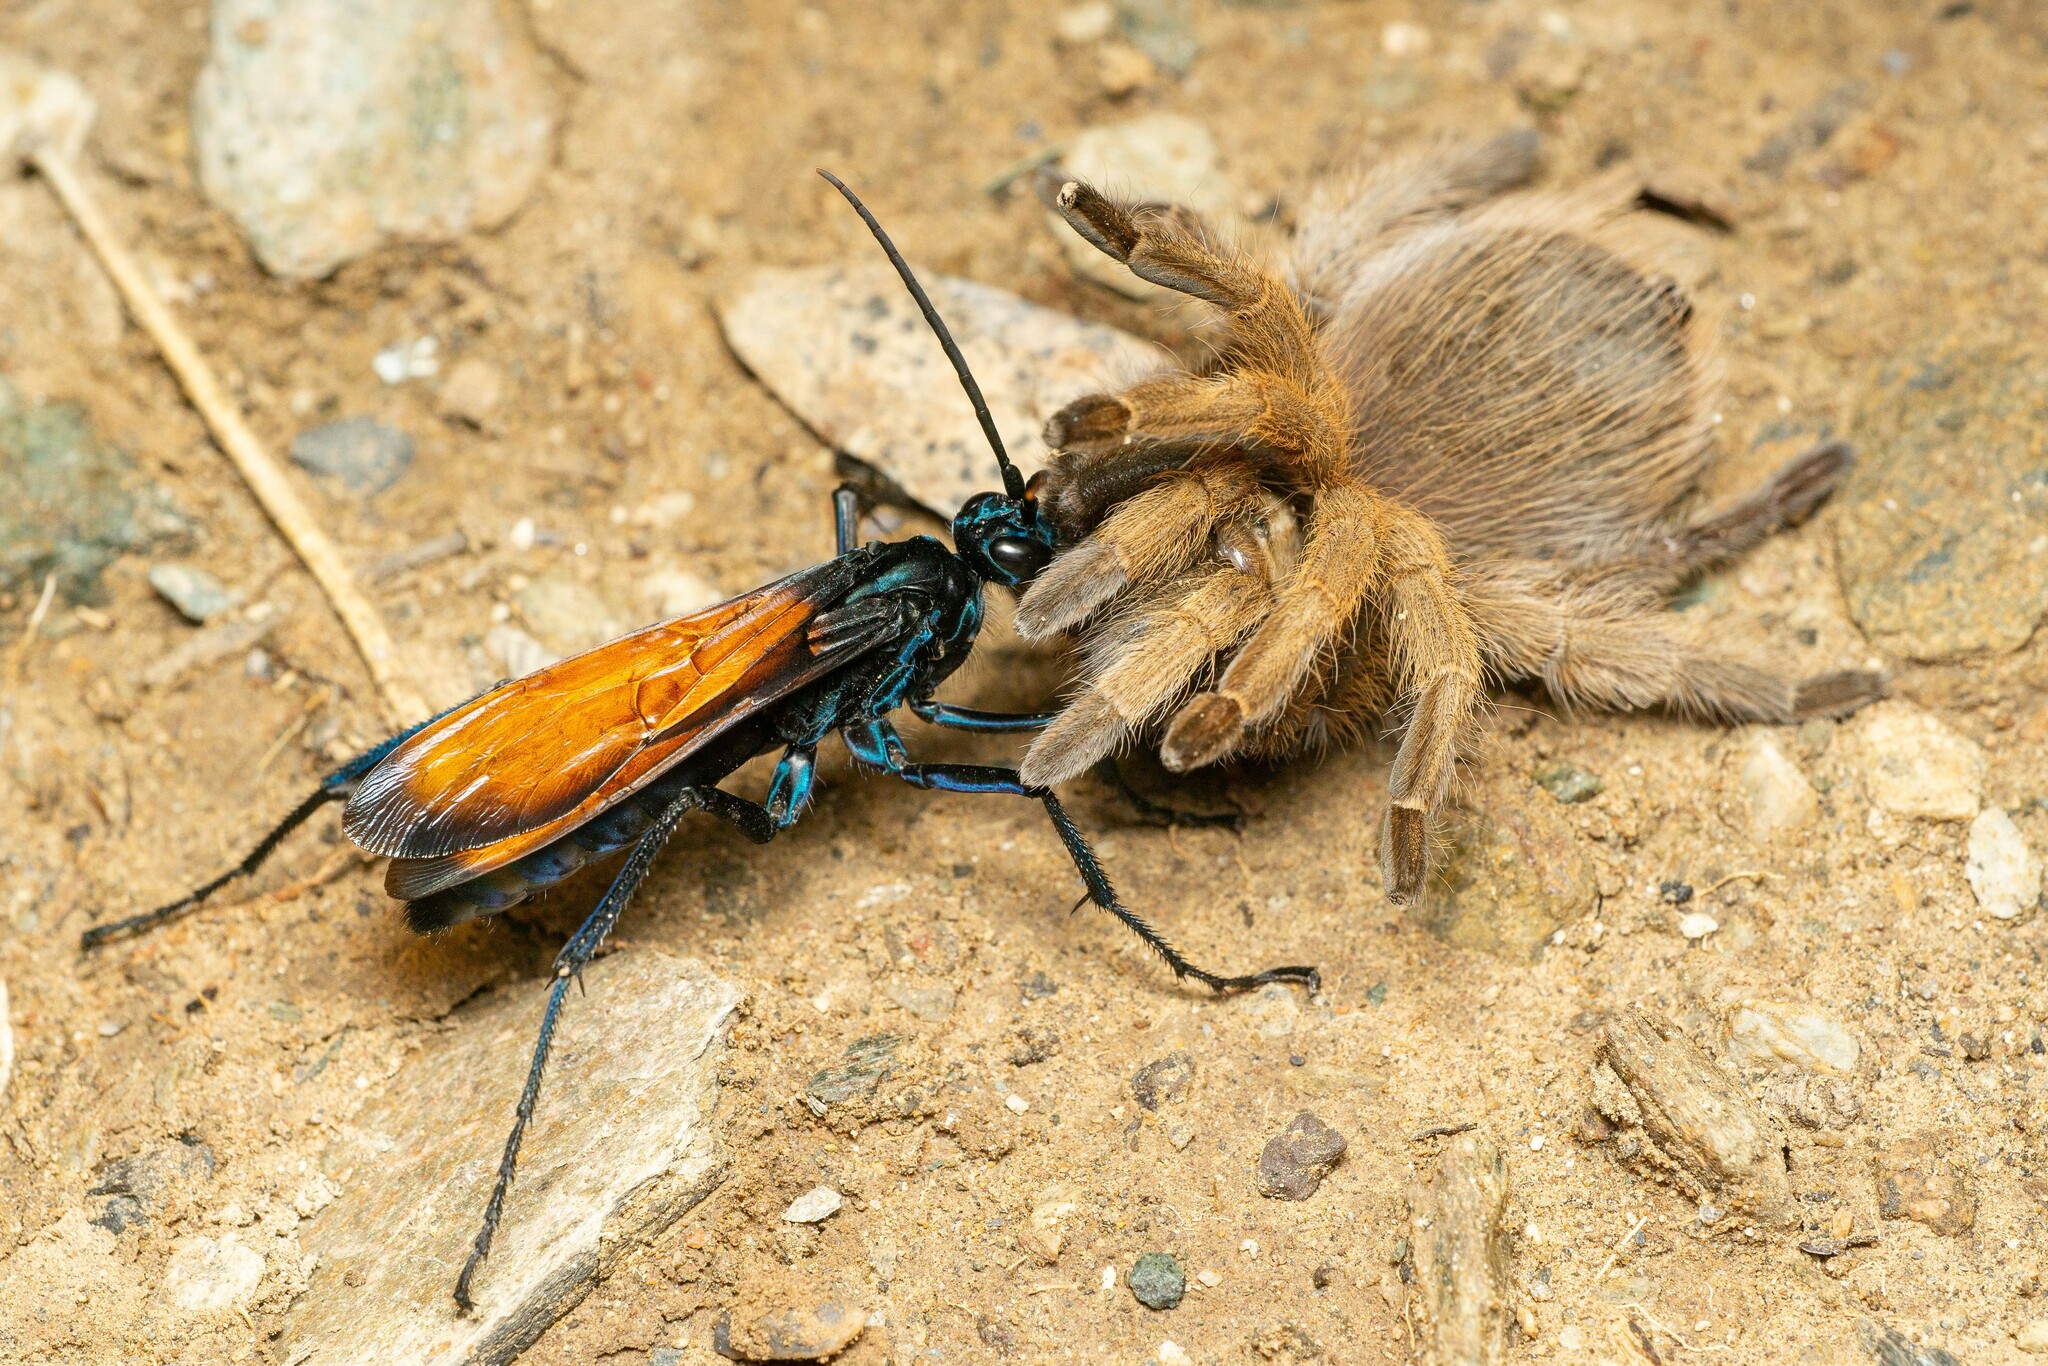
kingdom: Animalia
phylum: Arthropoda
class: Insecta
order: Hymenoptera
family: Pompilidae
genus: Pepsis
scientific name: Pepsis
